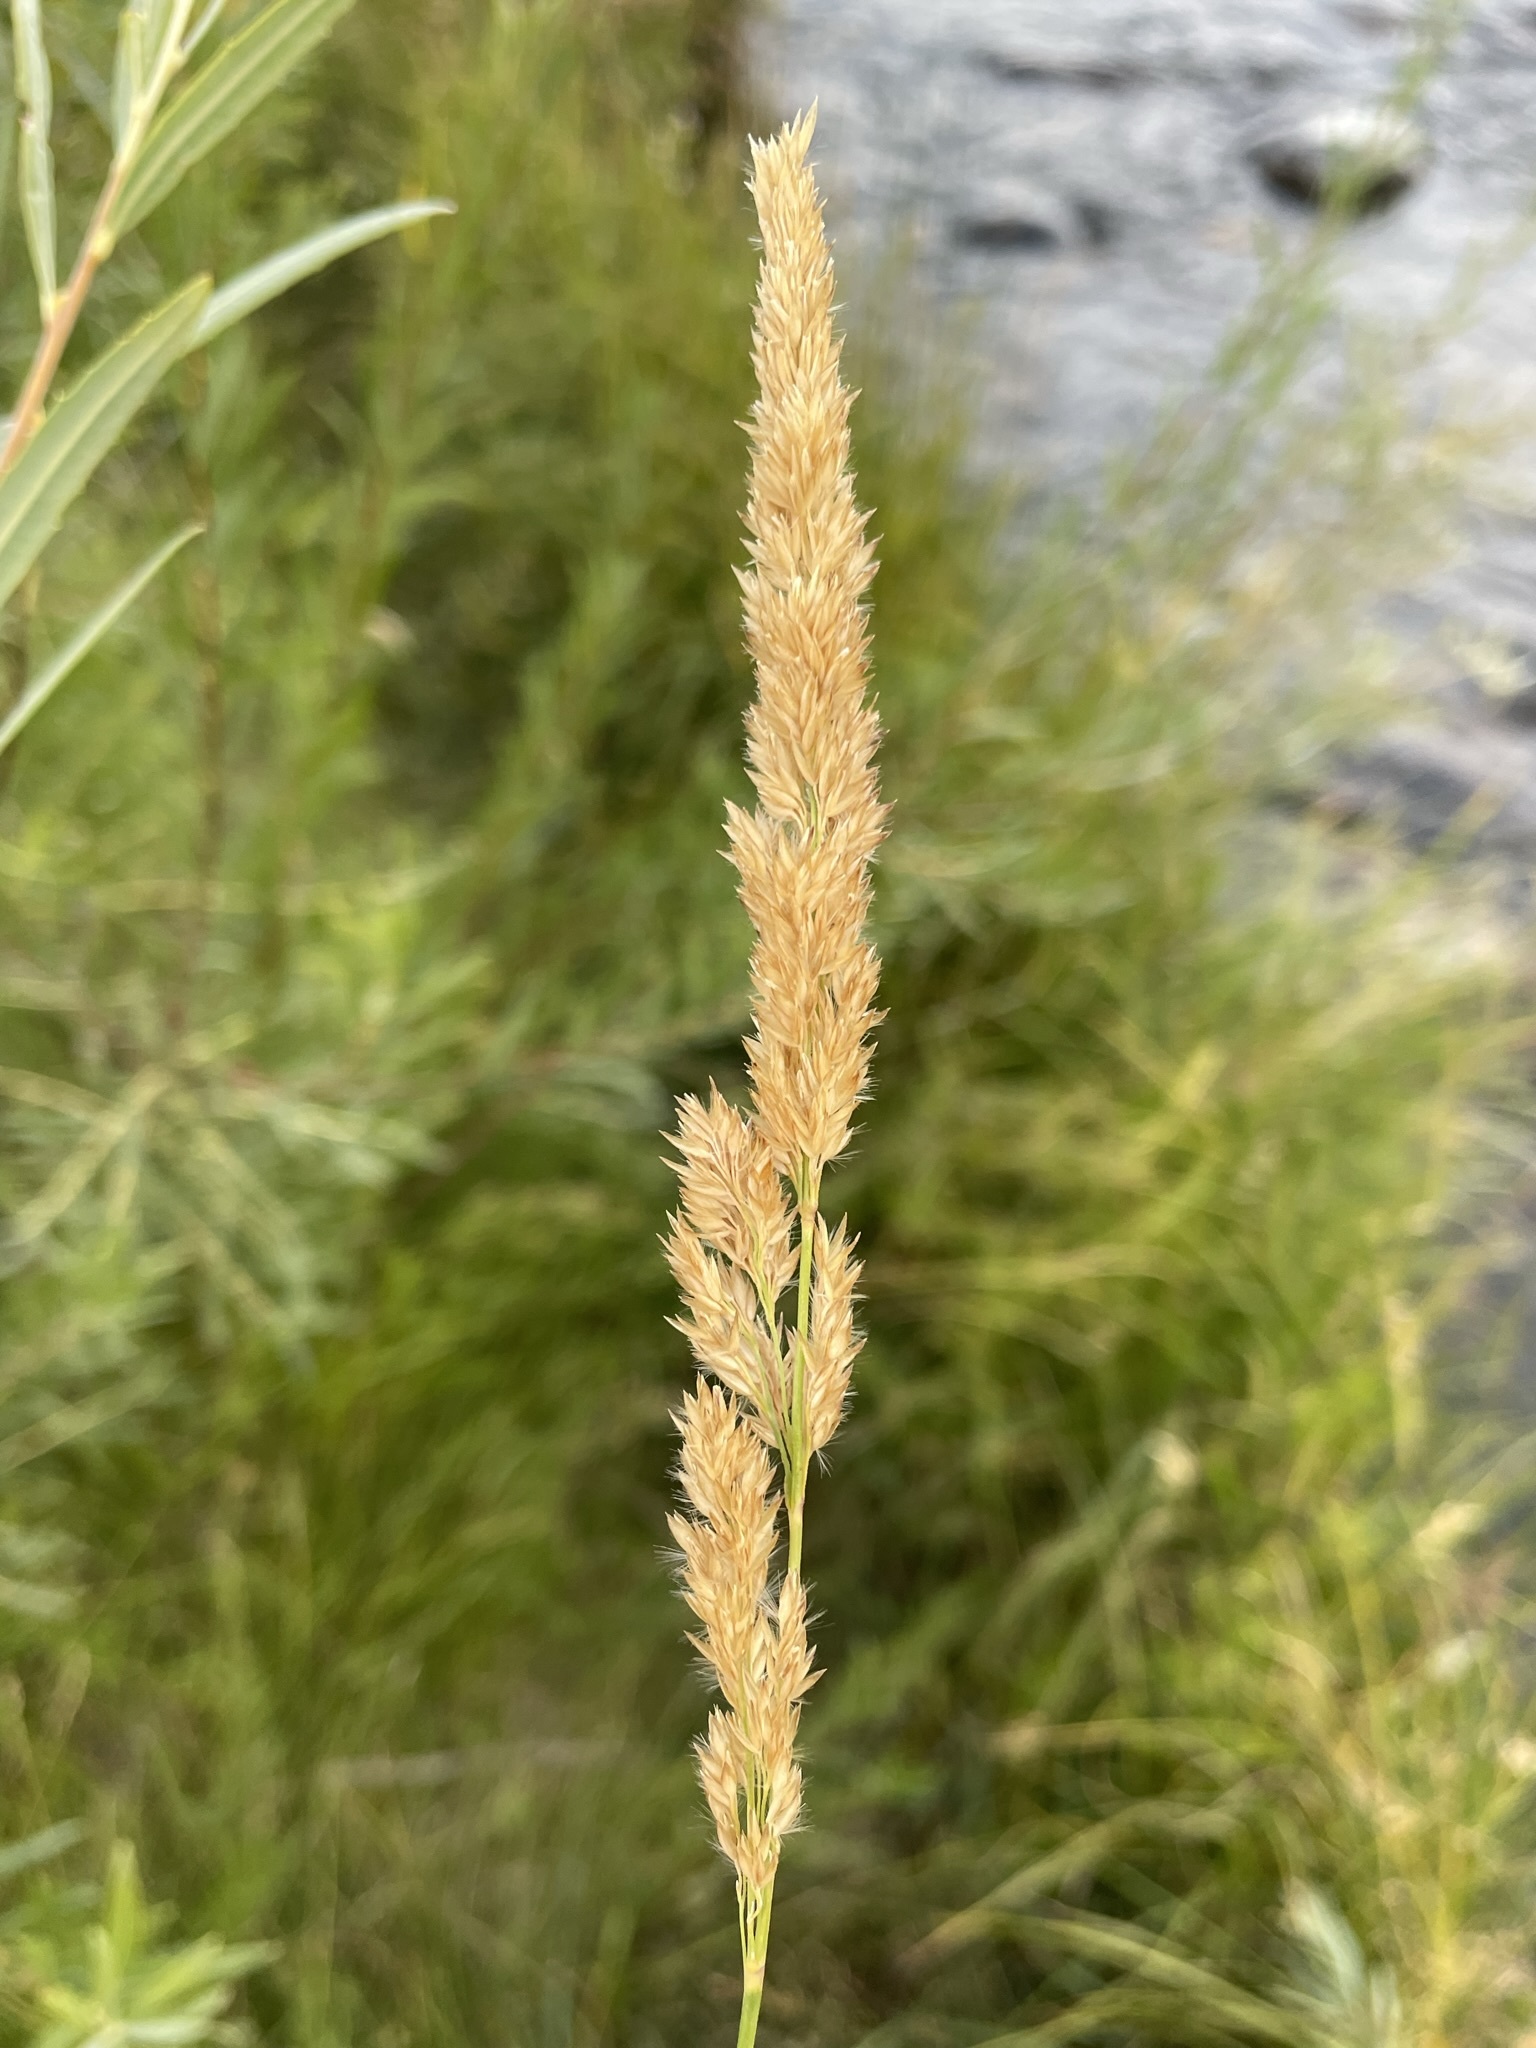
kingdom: Plantae
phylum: Tracheophyta
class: Liliopsida
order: Poales
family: Poaceae
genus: Calamagrostis
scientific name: Calamagrostis stricta
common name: Narrow small-reed
